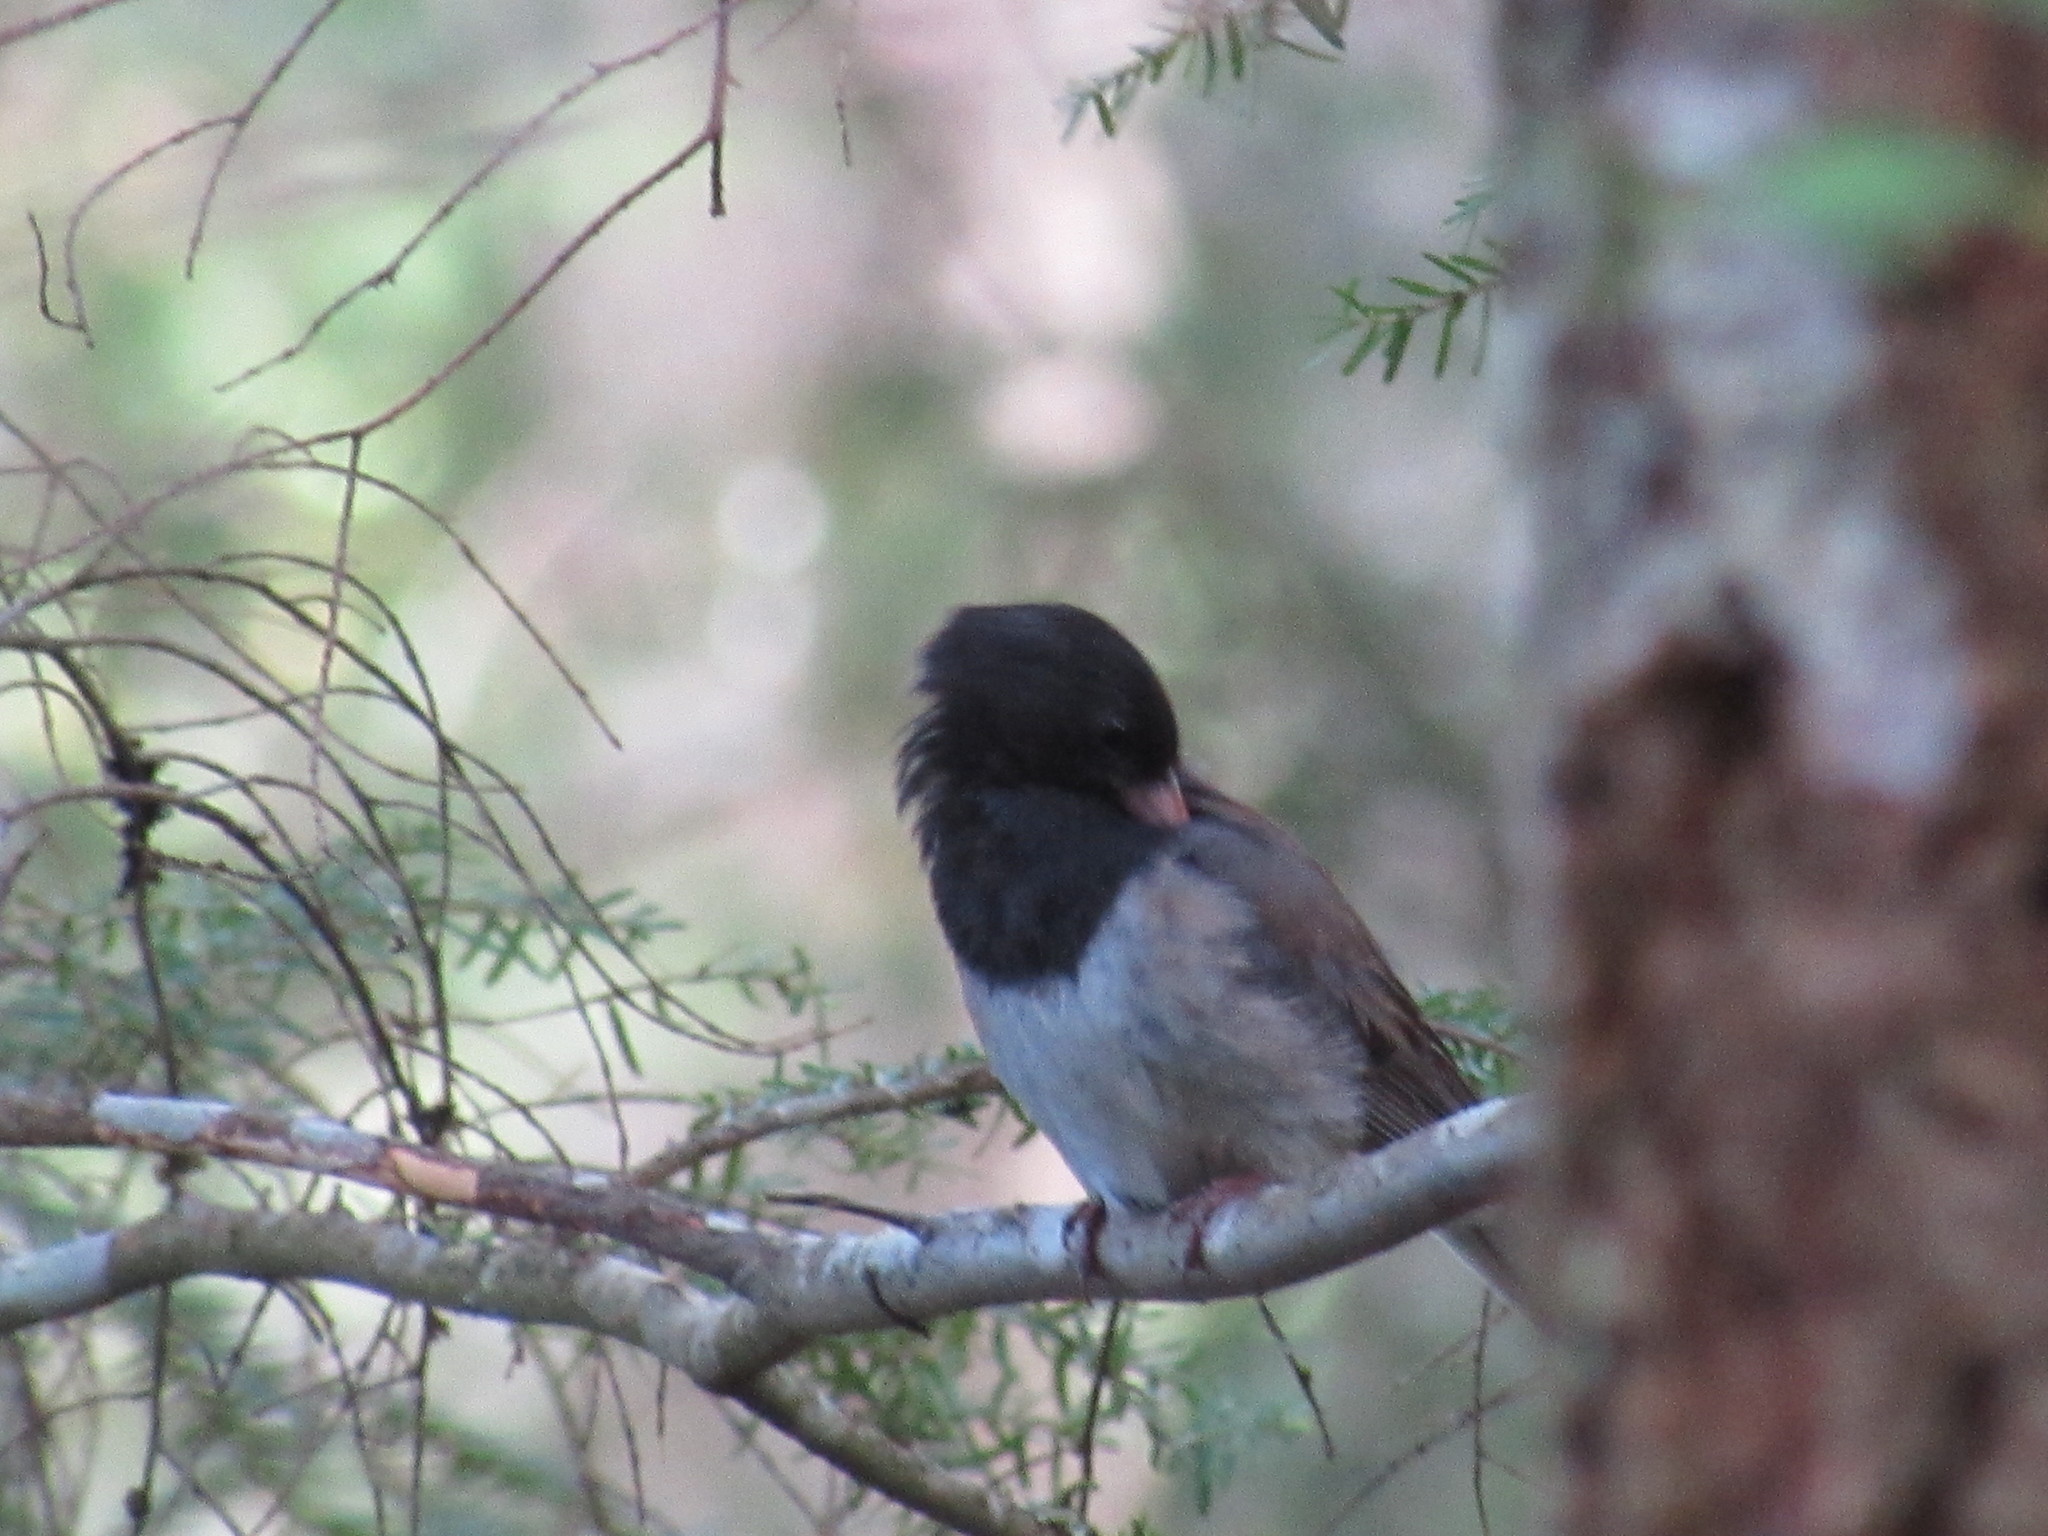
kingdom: Animalia
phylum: Chordata
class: Aves
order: Passeriformes
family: Passerellidae
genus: Junco
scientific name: Junco hyemalis
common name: Dark-eyed junco
